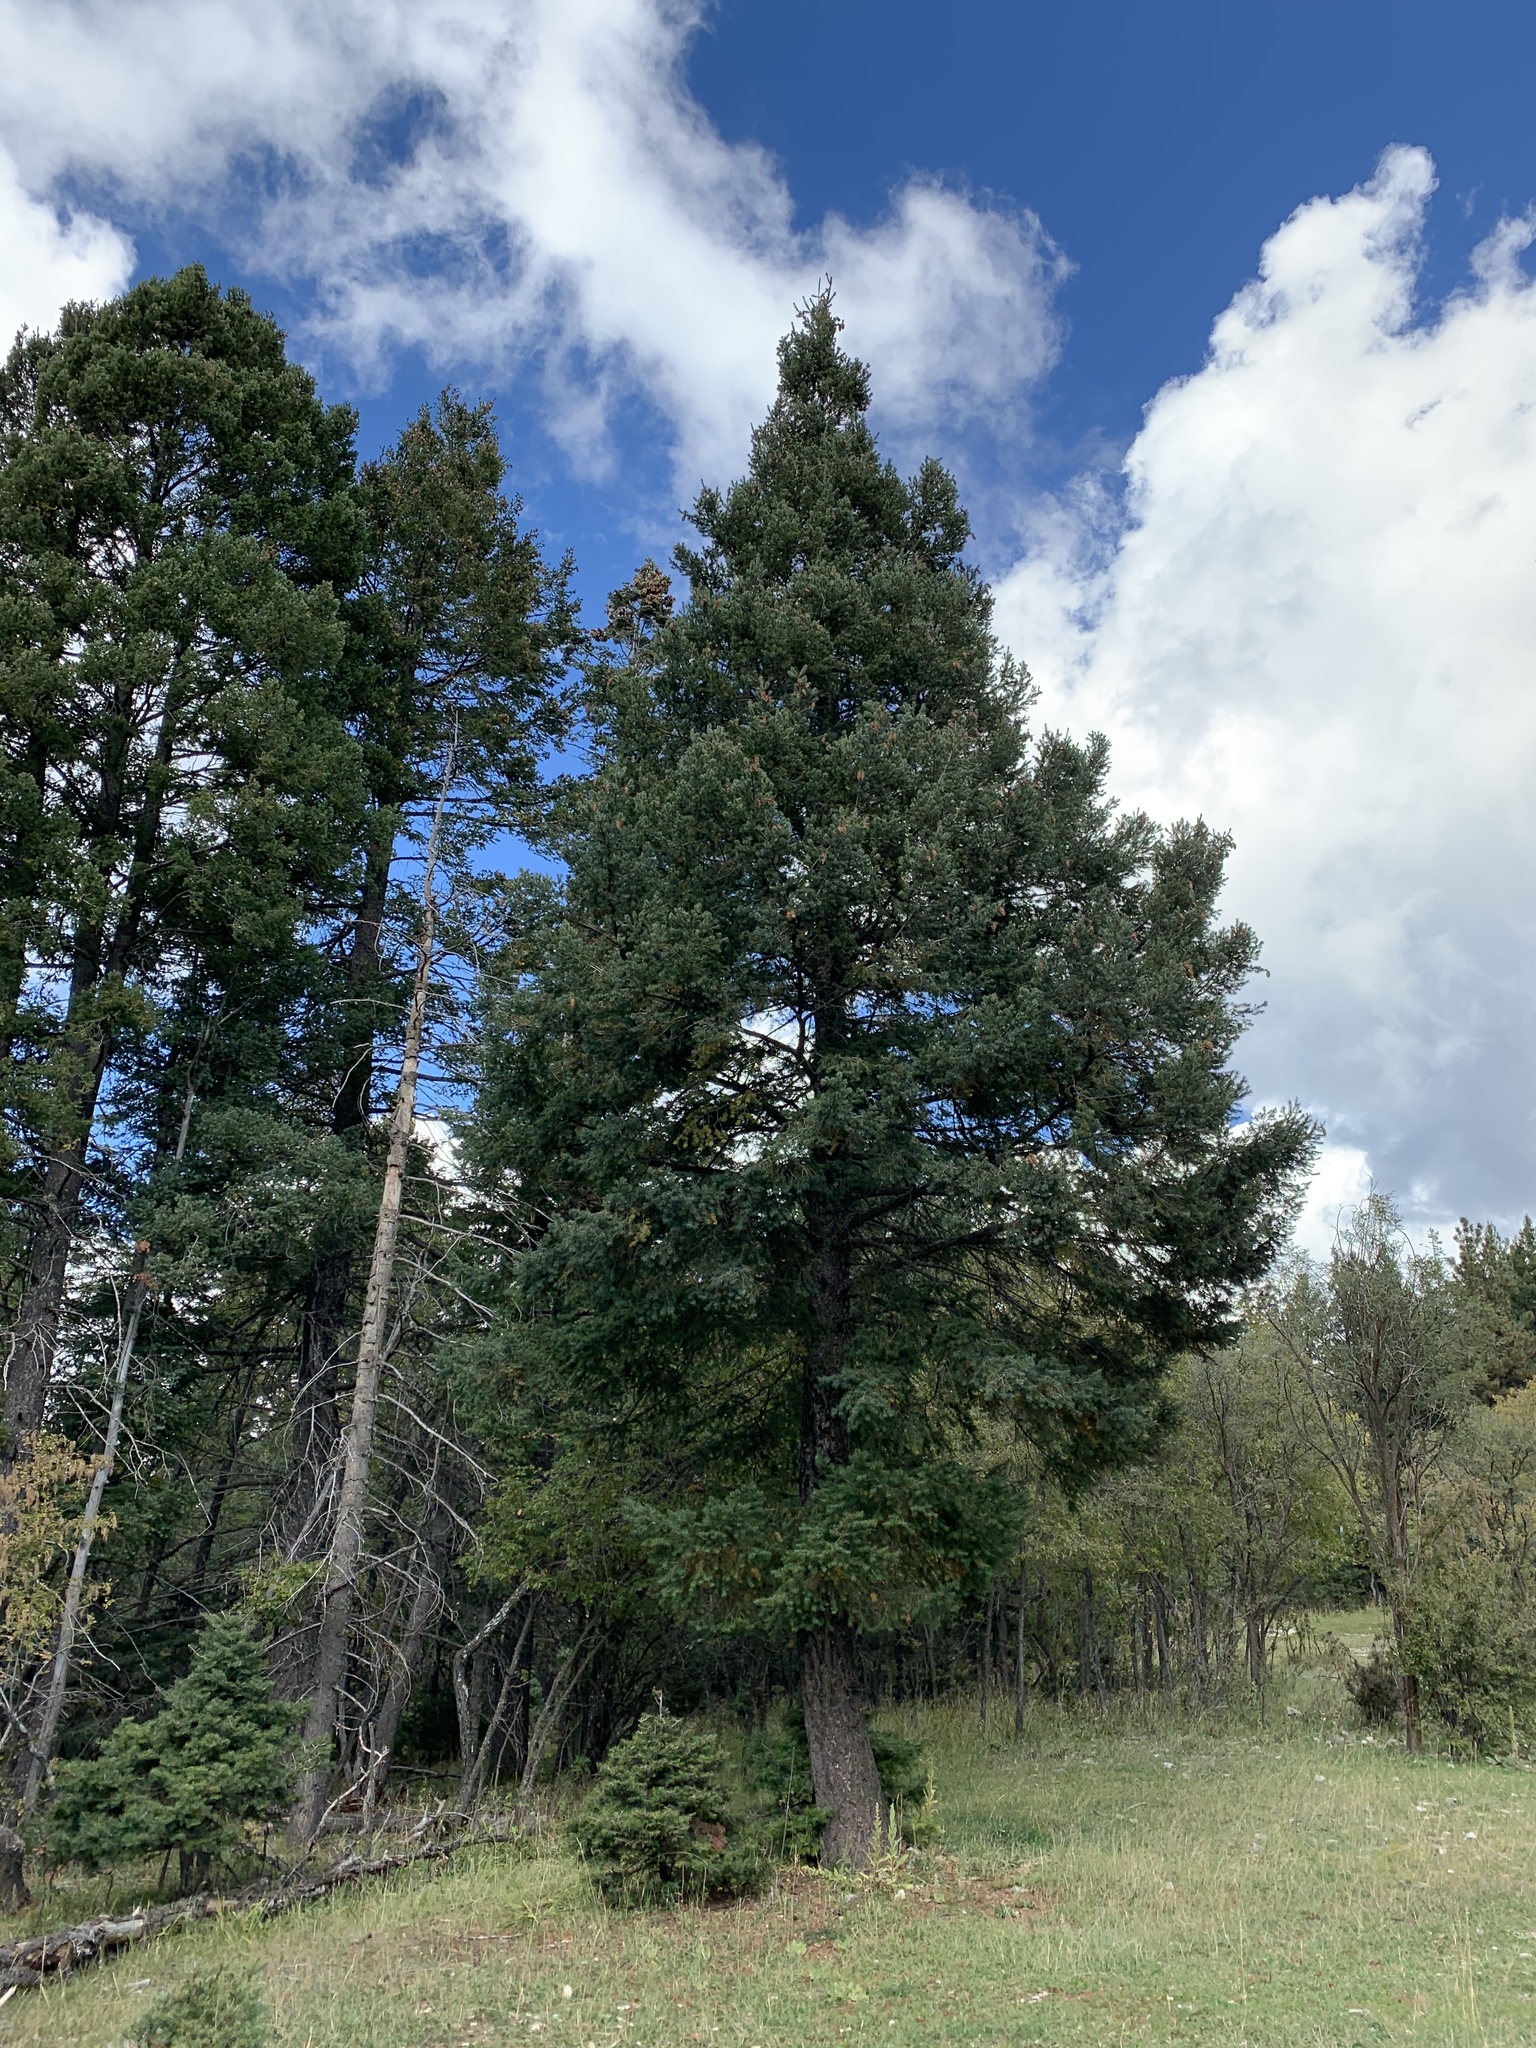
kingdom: Plantae
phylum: Tracheophyta
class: Pinopsida
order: Pinales
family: Pinaceae
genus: Pseudotsuga
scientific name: Pseudotsuga menziesii
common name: Douglas fir
